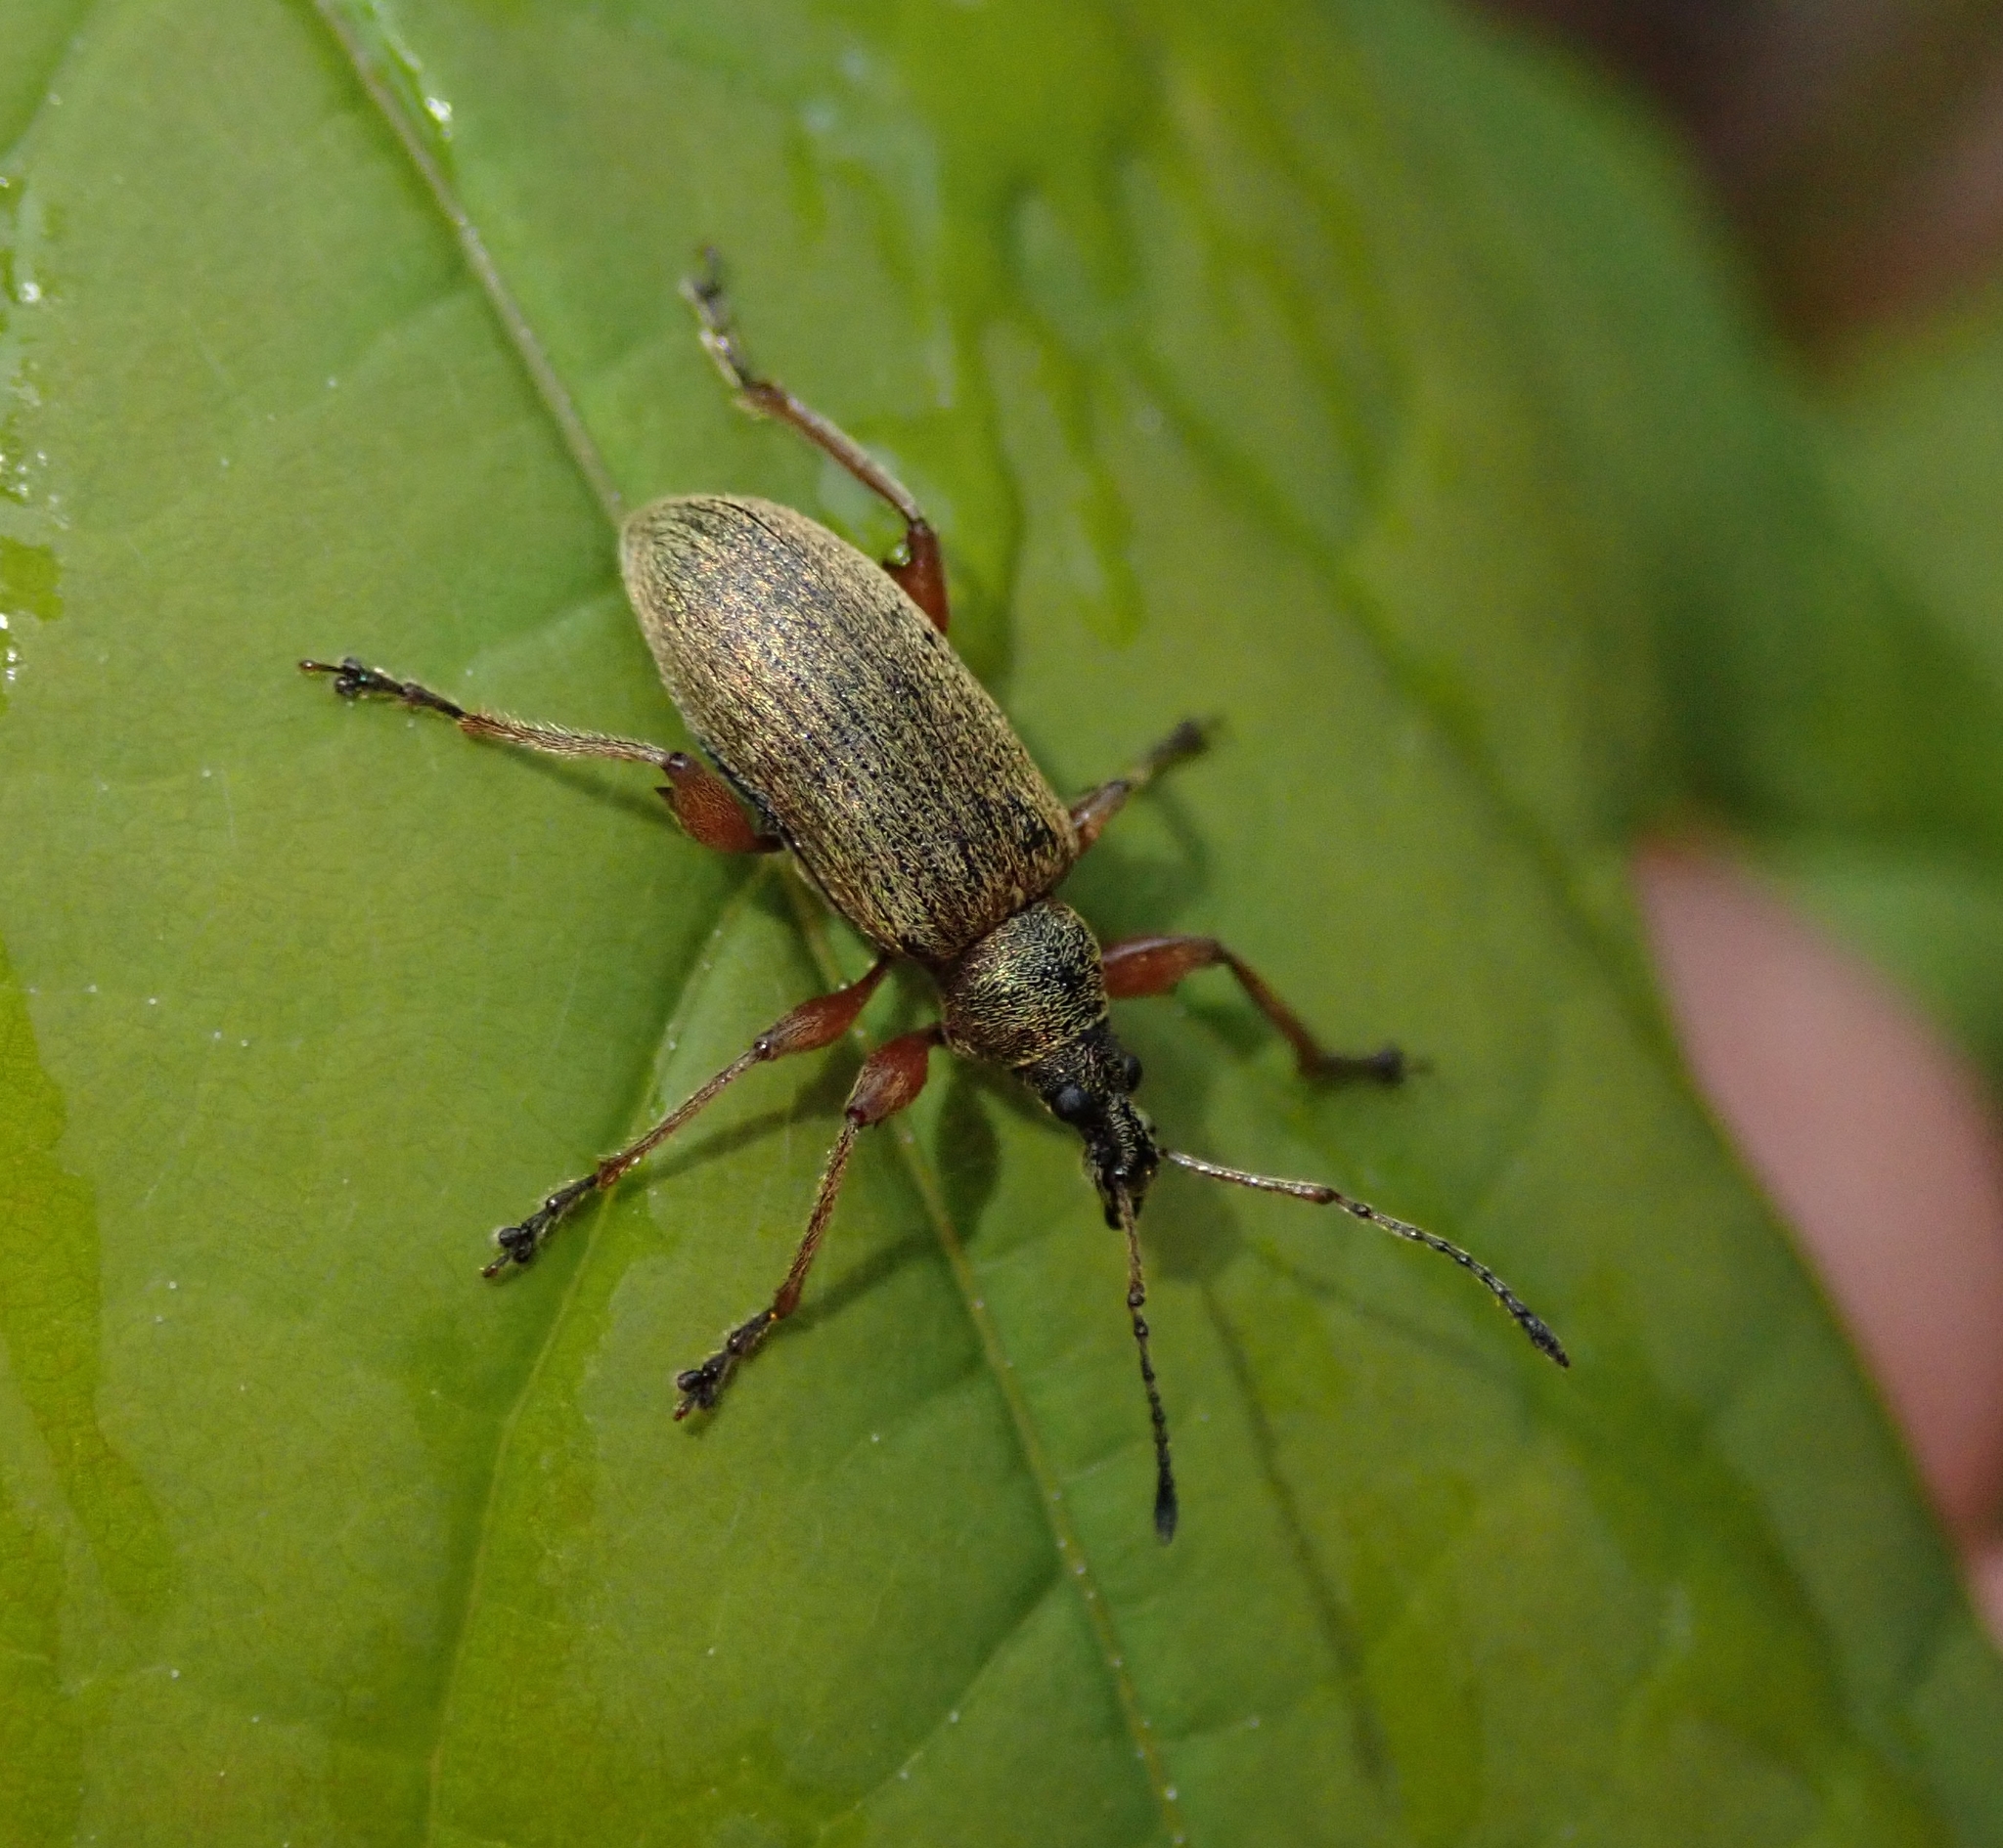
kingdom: Animalia
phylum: Arthropoda
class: Insecta
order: Coleoptera
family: Curculionidae
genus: Phyllobius
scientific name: Phyllobius glaucus
